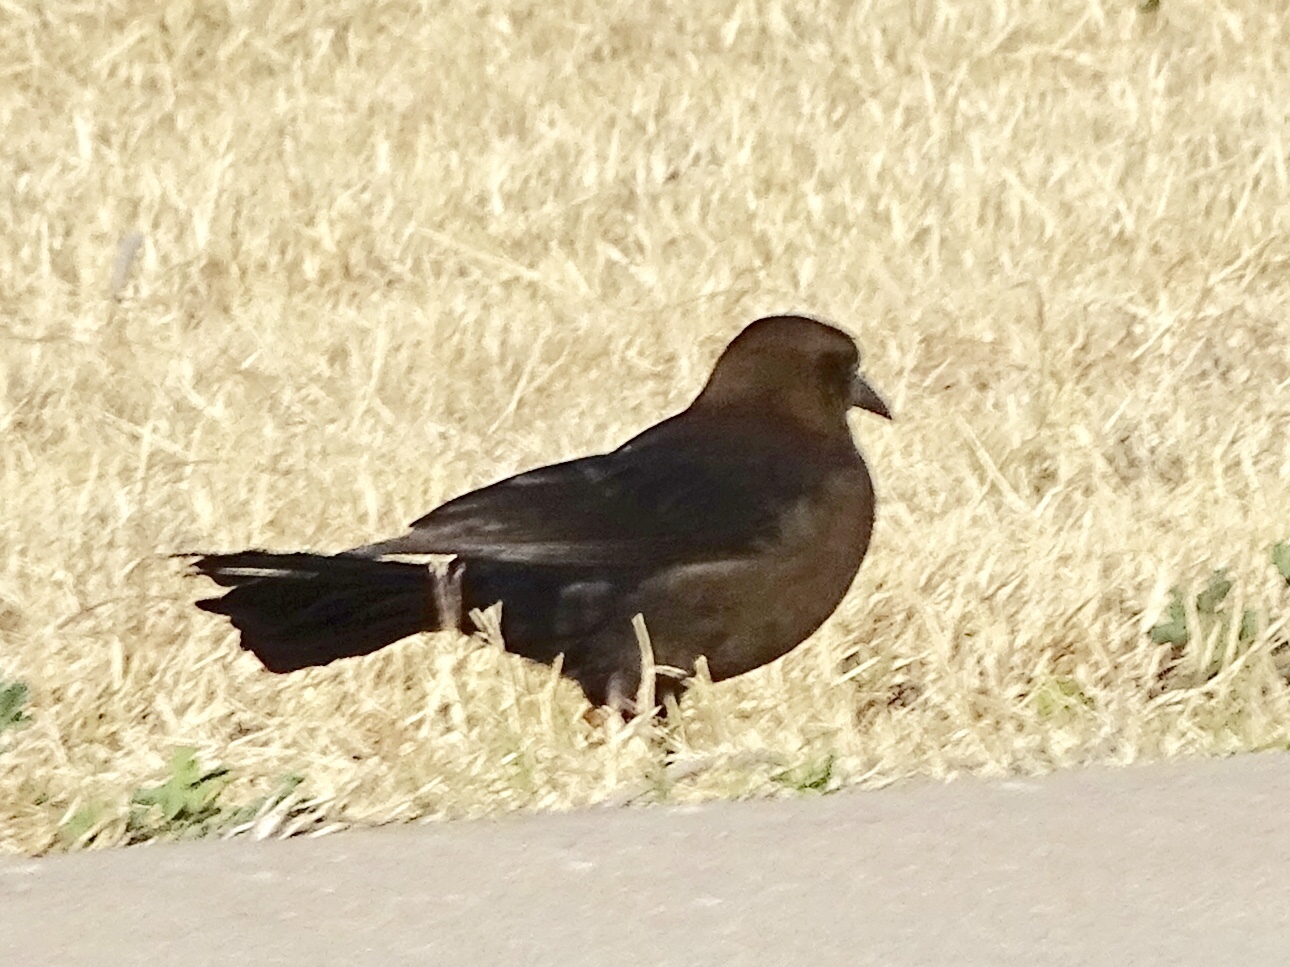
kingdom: Animalia
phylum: Chordata
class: Aves
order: Passeriformes
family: Icteridae
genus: Quiscalus
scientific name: Quiscalus mexicanus
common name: Great-tailed grackle
